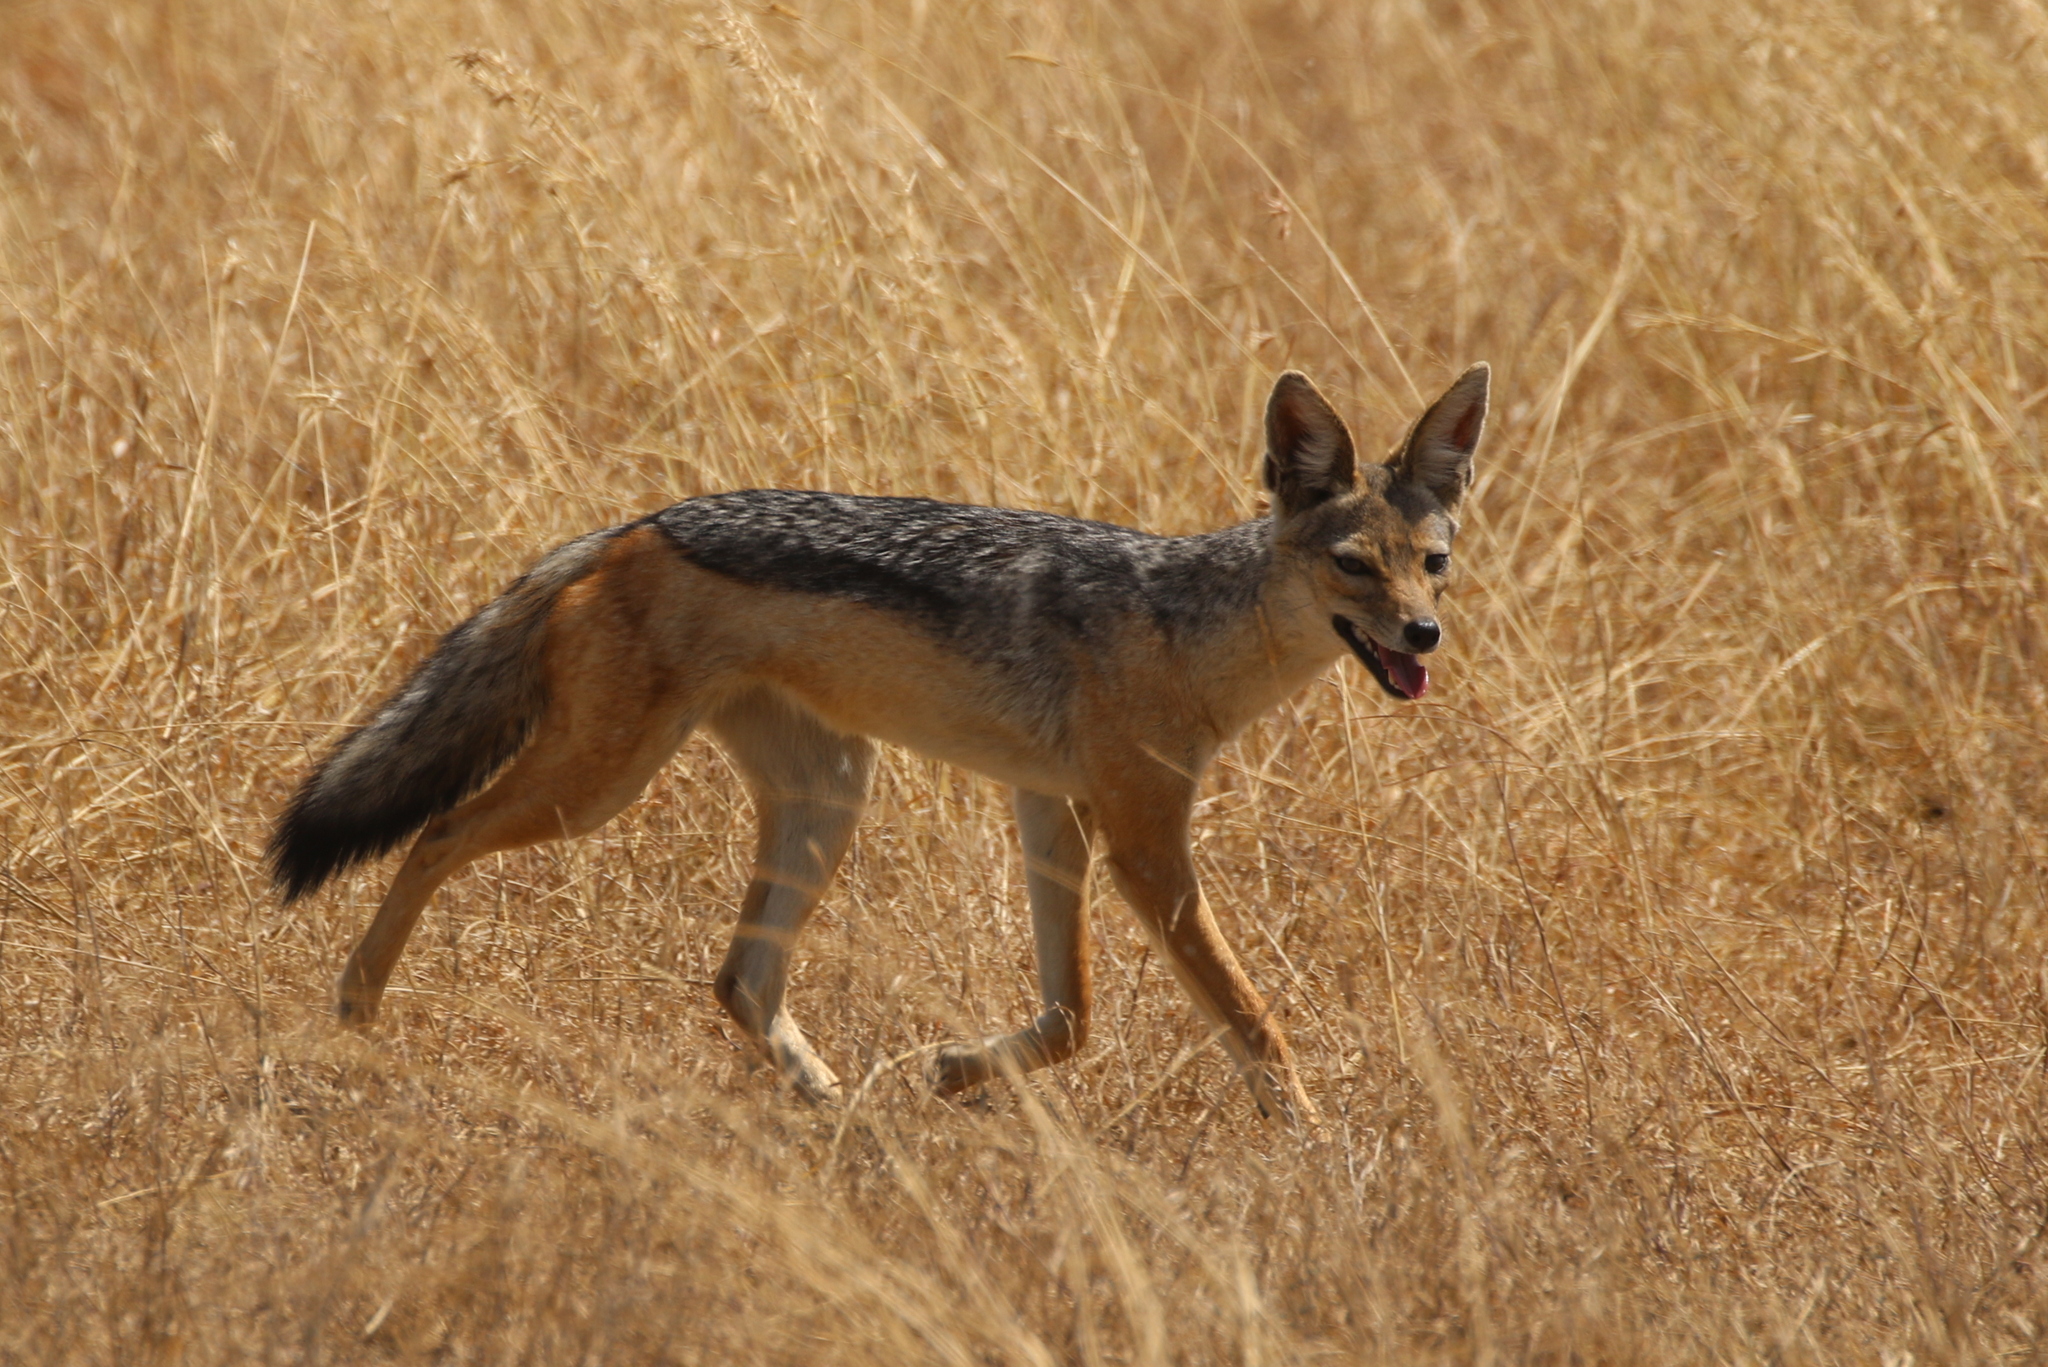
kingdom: Animalia
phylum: Chordata
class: Mammalia
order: Carnivora
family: Canidae
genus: Lupulella
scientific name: Lupulella
